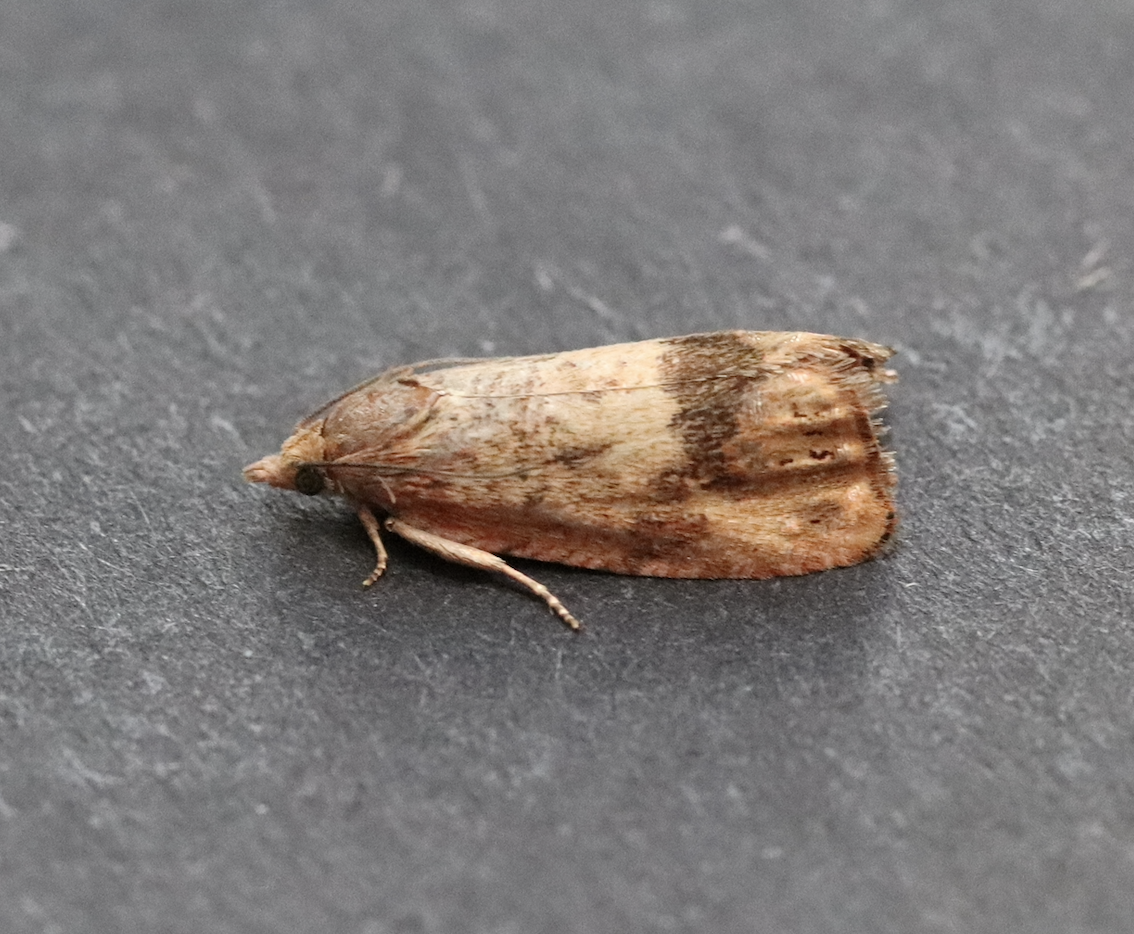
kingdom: Animalia
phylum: Arthropoda
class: Insecta
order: Lepidoptera
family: Tortricidae
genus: Cydia
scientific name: Cydia amplana
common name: Vagrant piercer
